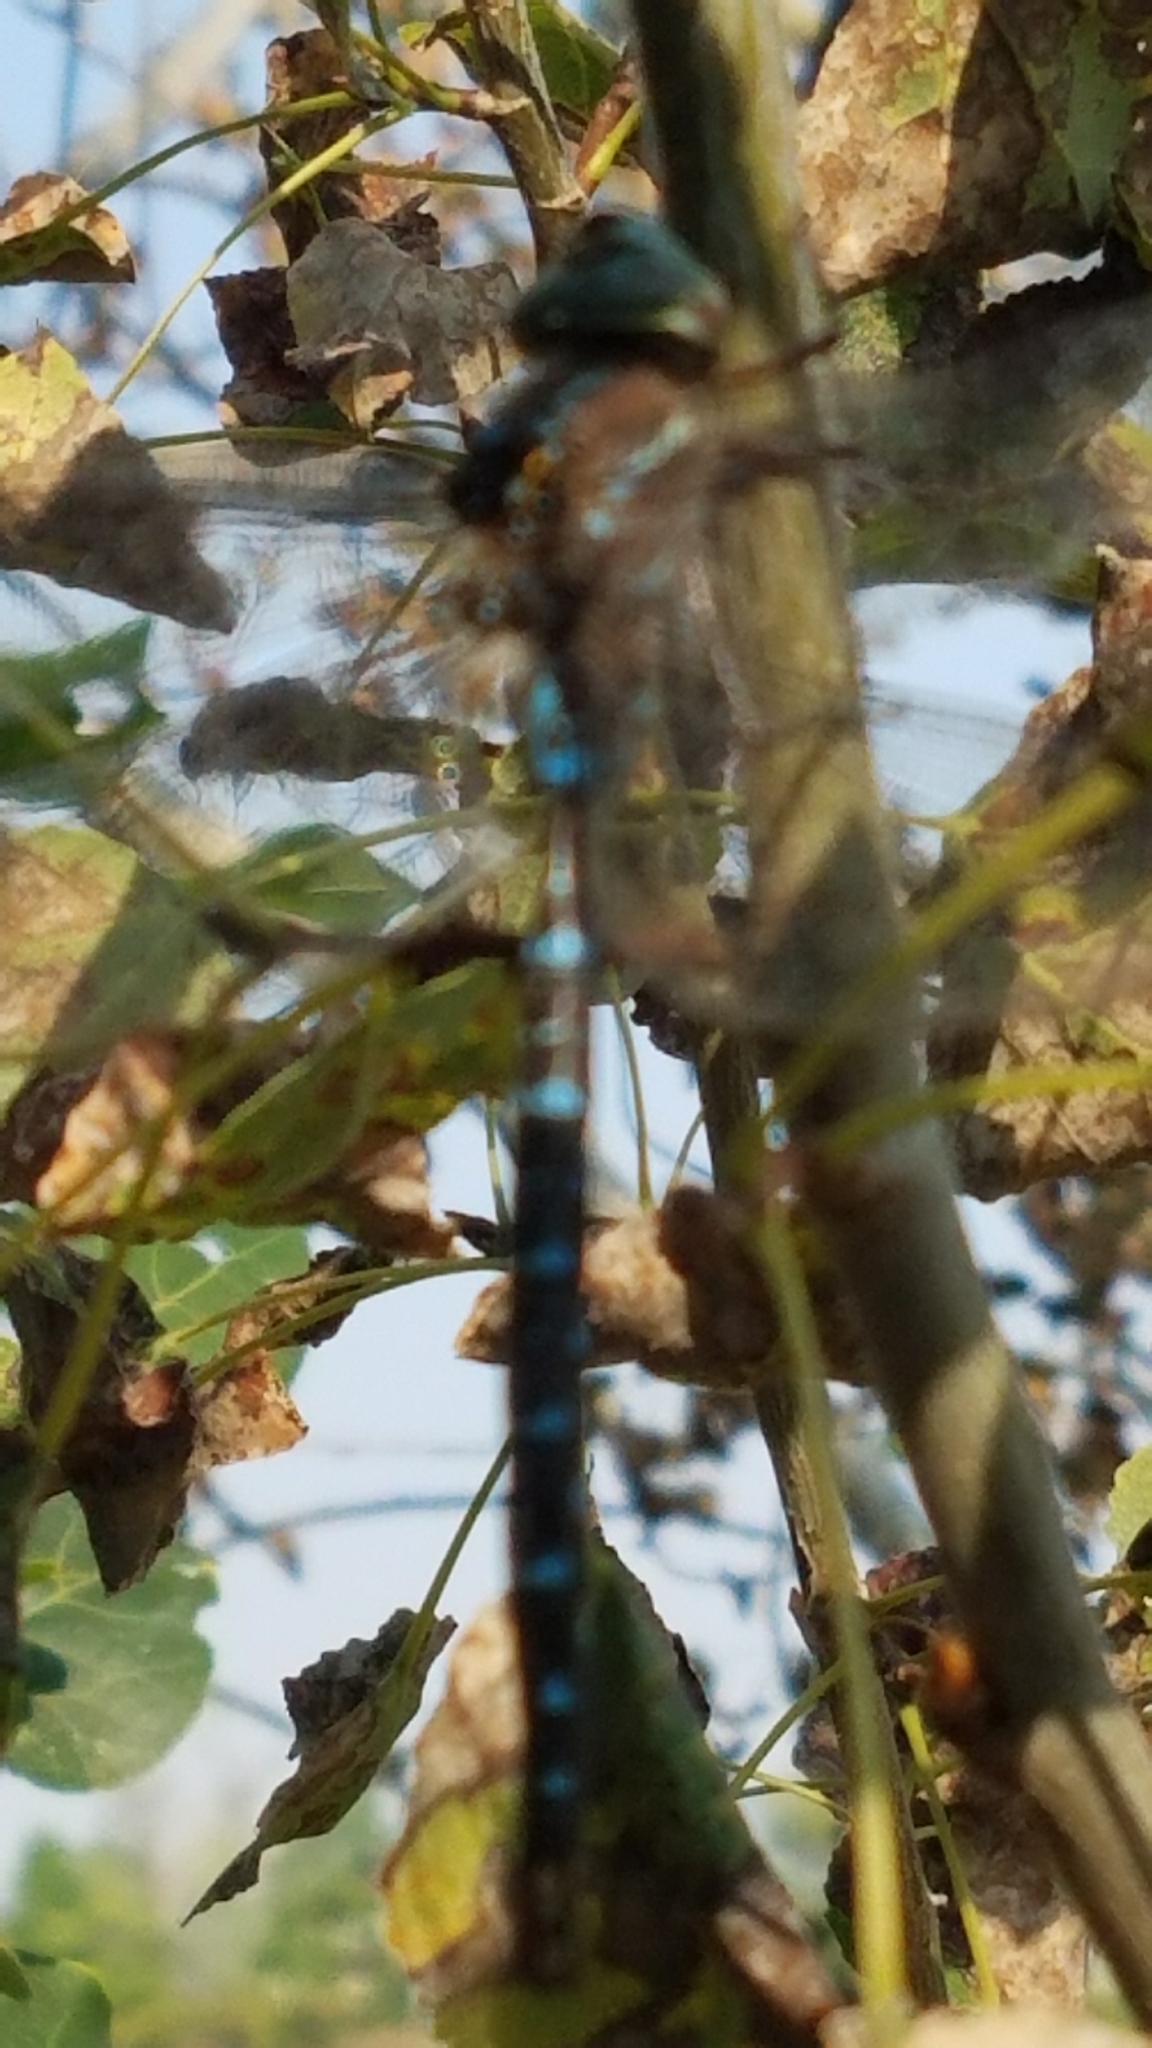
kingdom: Animalia
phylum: Arthropoda
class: Insecta
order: Odonata
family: Aeshnidae
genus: Aeshna
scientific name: Aeshna umbrosa
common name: Shadow darner
